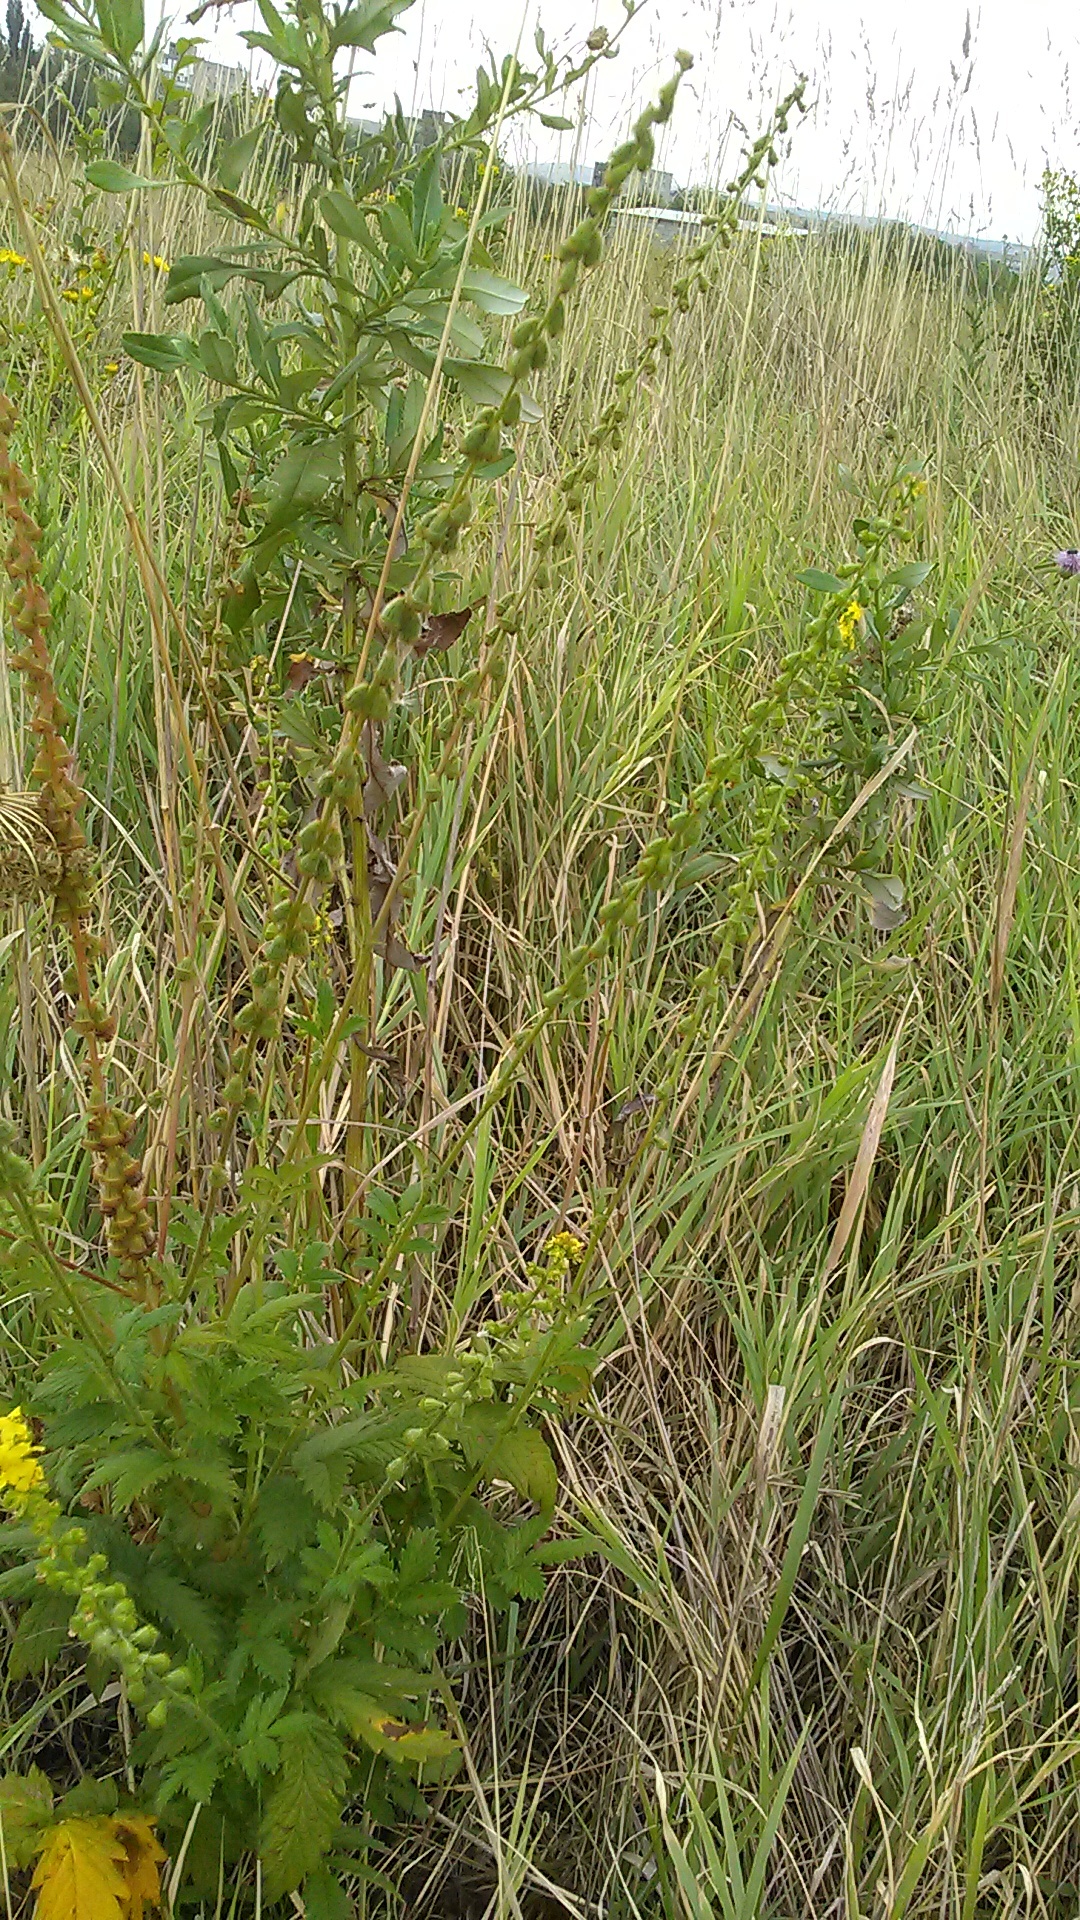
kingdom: Plantae
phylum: Tracheophyta
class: Magnoliopsida
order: Rosales
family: Rosaceae
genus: Agrimonia
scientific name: Agrimonia eupatoria
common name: Agrimony
